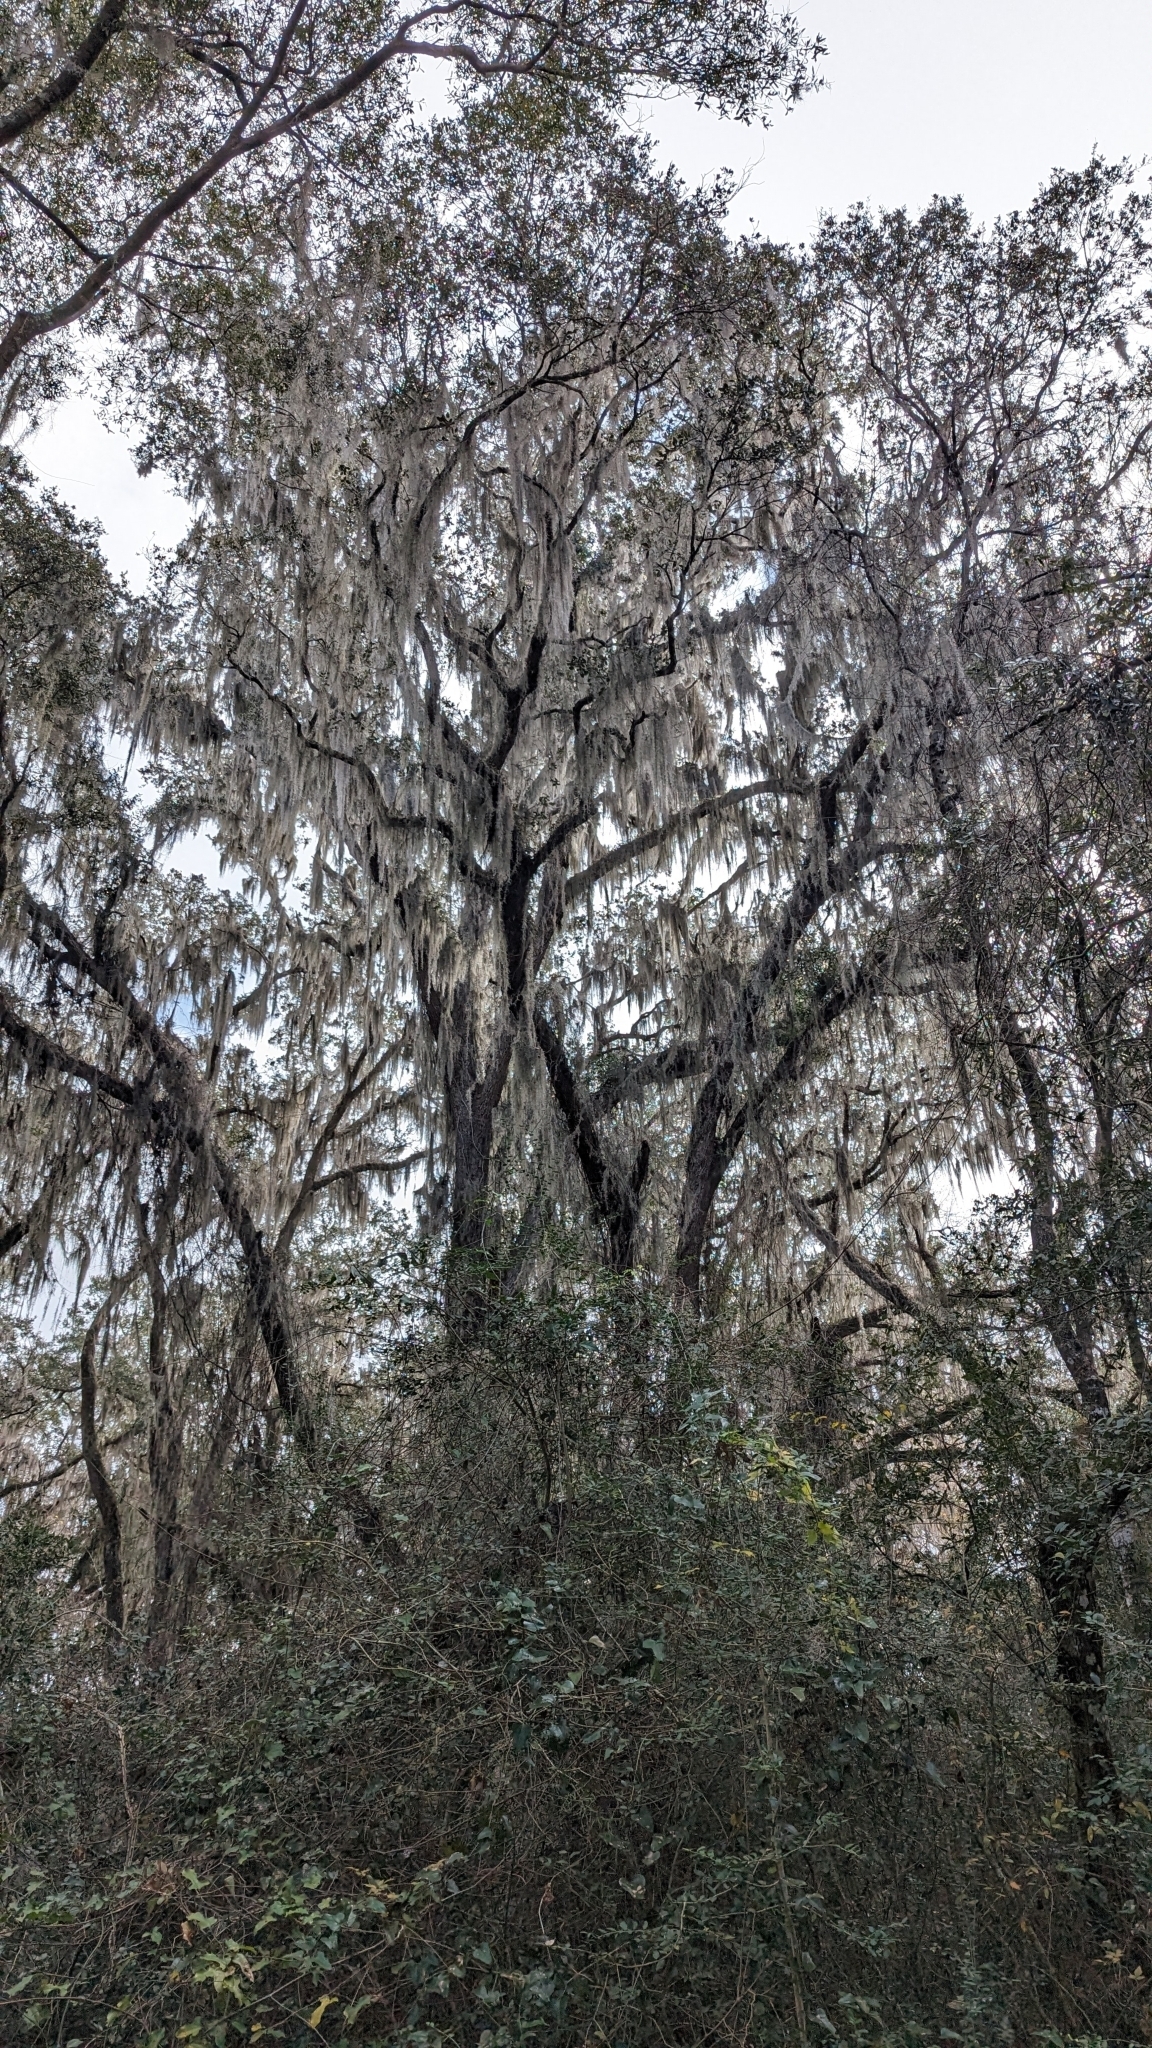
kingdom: Plantae
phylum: Tracheophyta
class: Magnoliopsida
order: Fagales
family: Fagaceae
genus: Quercus
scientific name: Quercus virginiana
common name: Southern live oak
